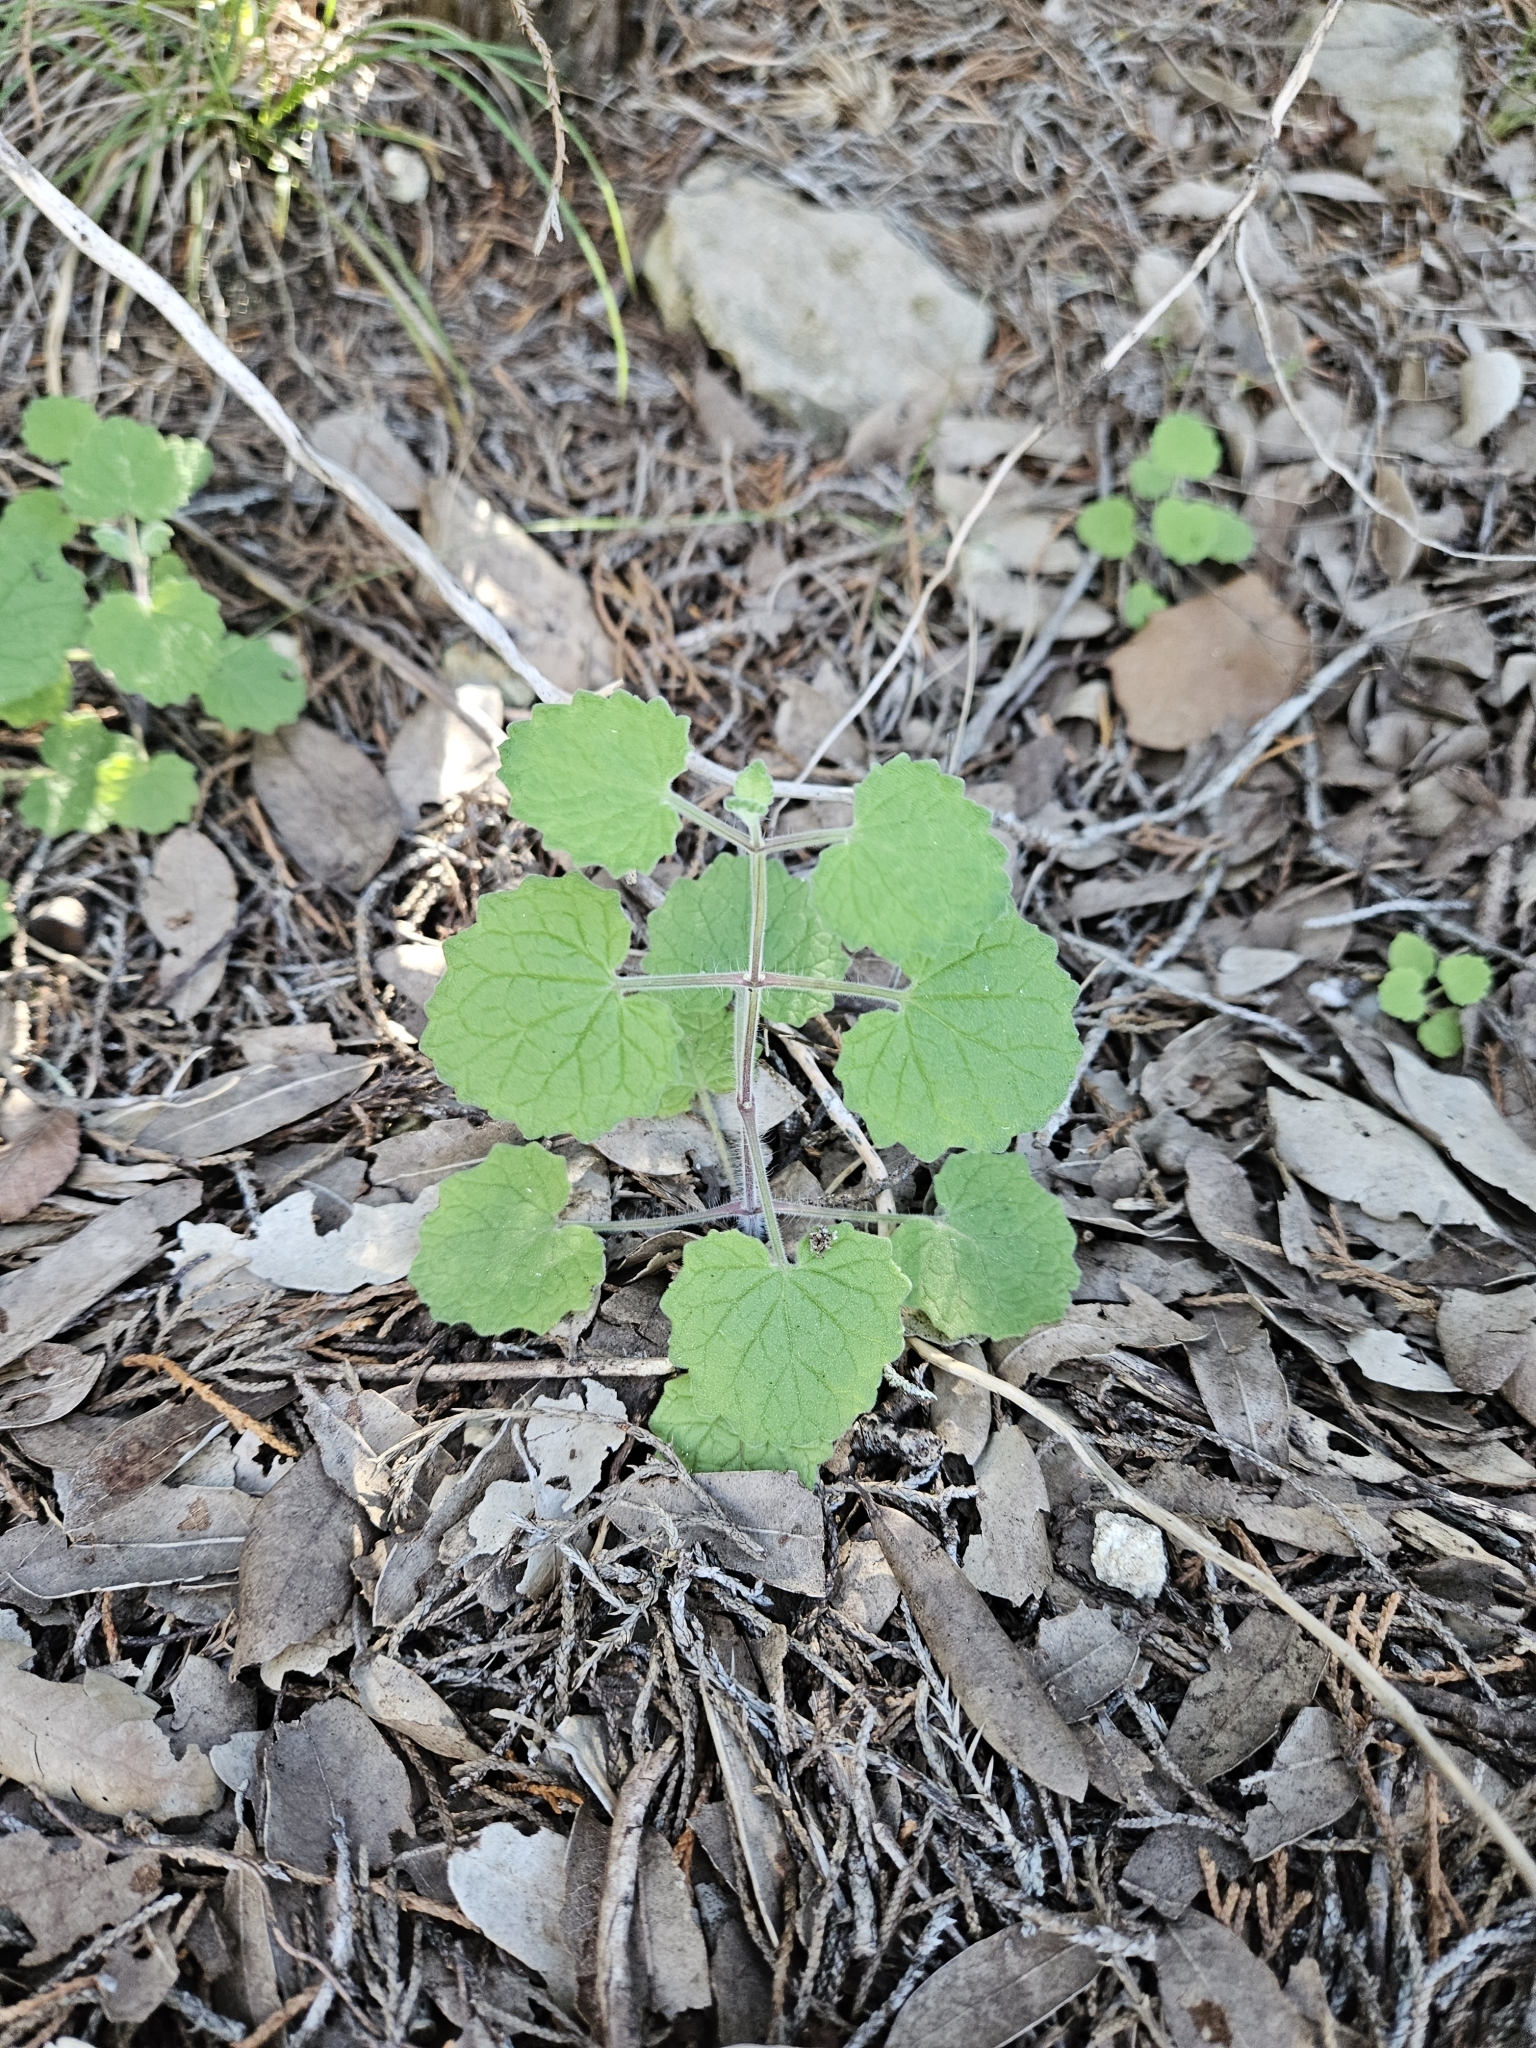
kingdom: Plantae
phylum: Tracheophyta
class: Magnoliopsida
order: Lamiales
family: Lamiaceae
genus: Salvia
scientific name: Salvia roemeriana
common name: Cedar sage
